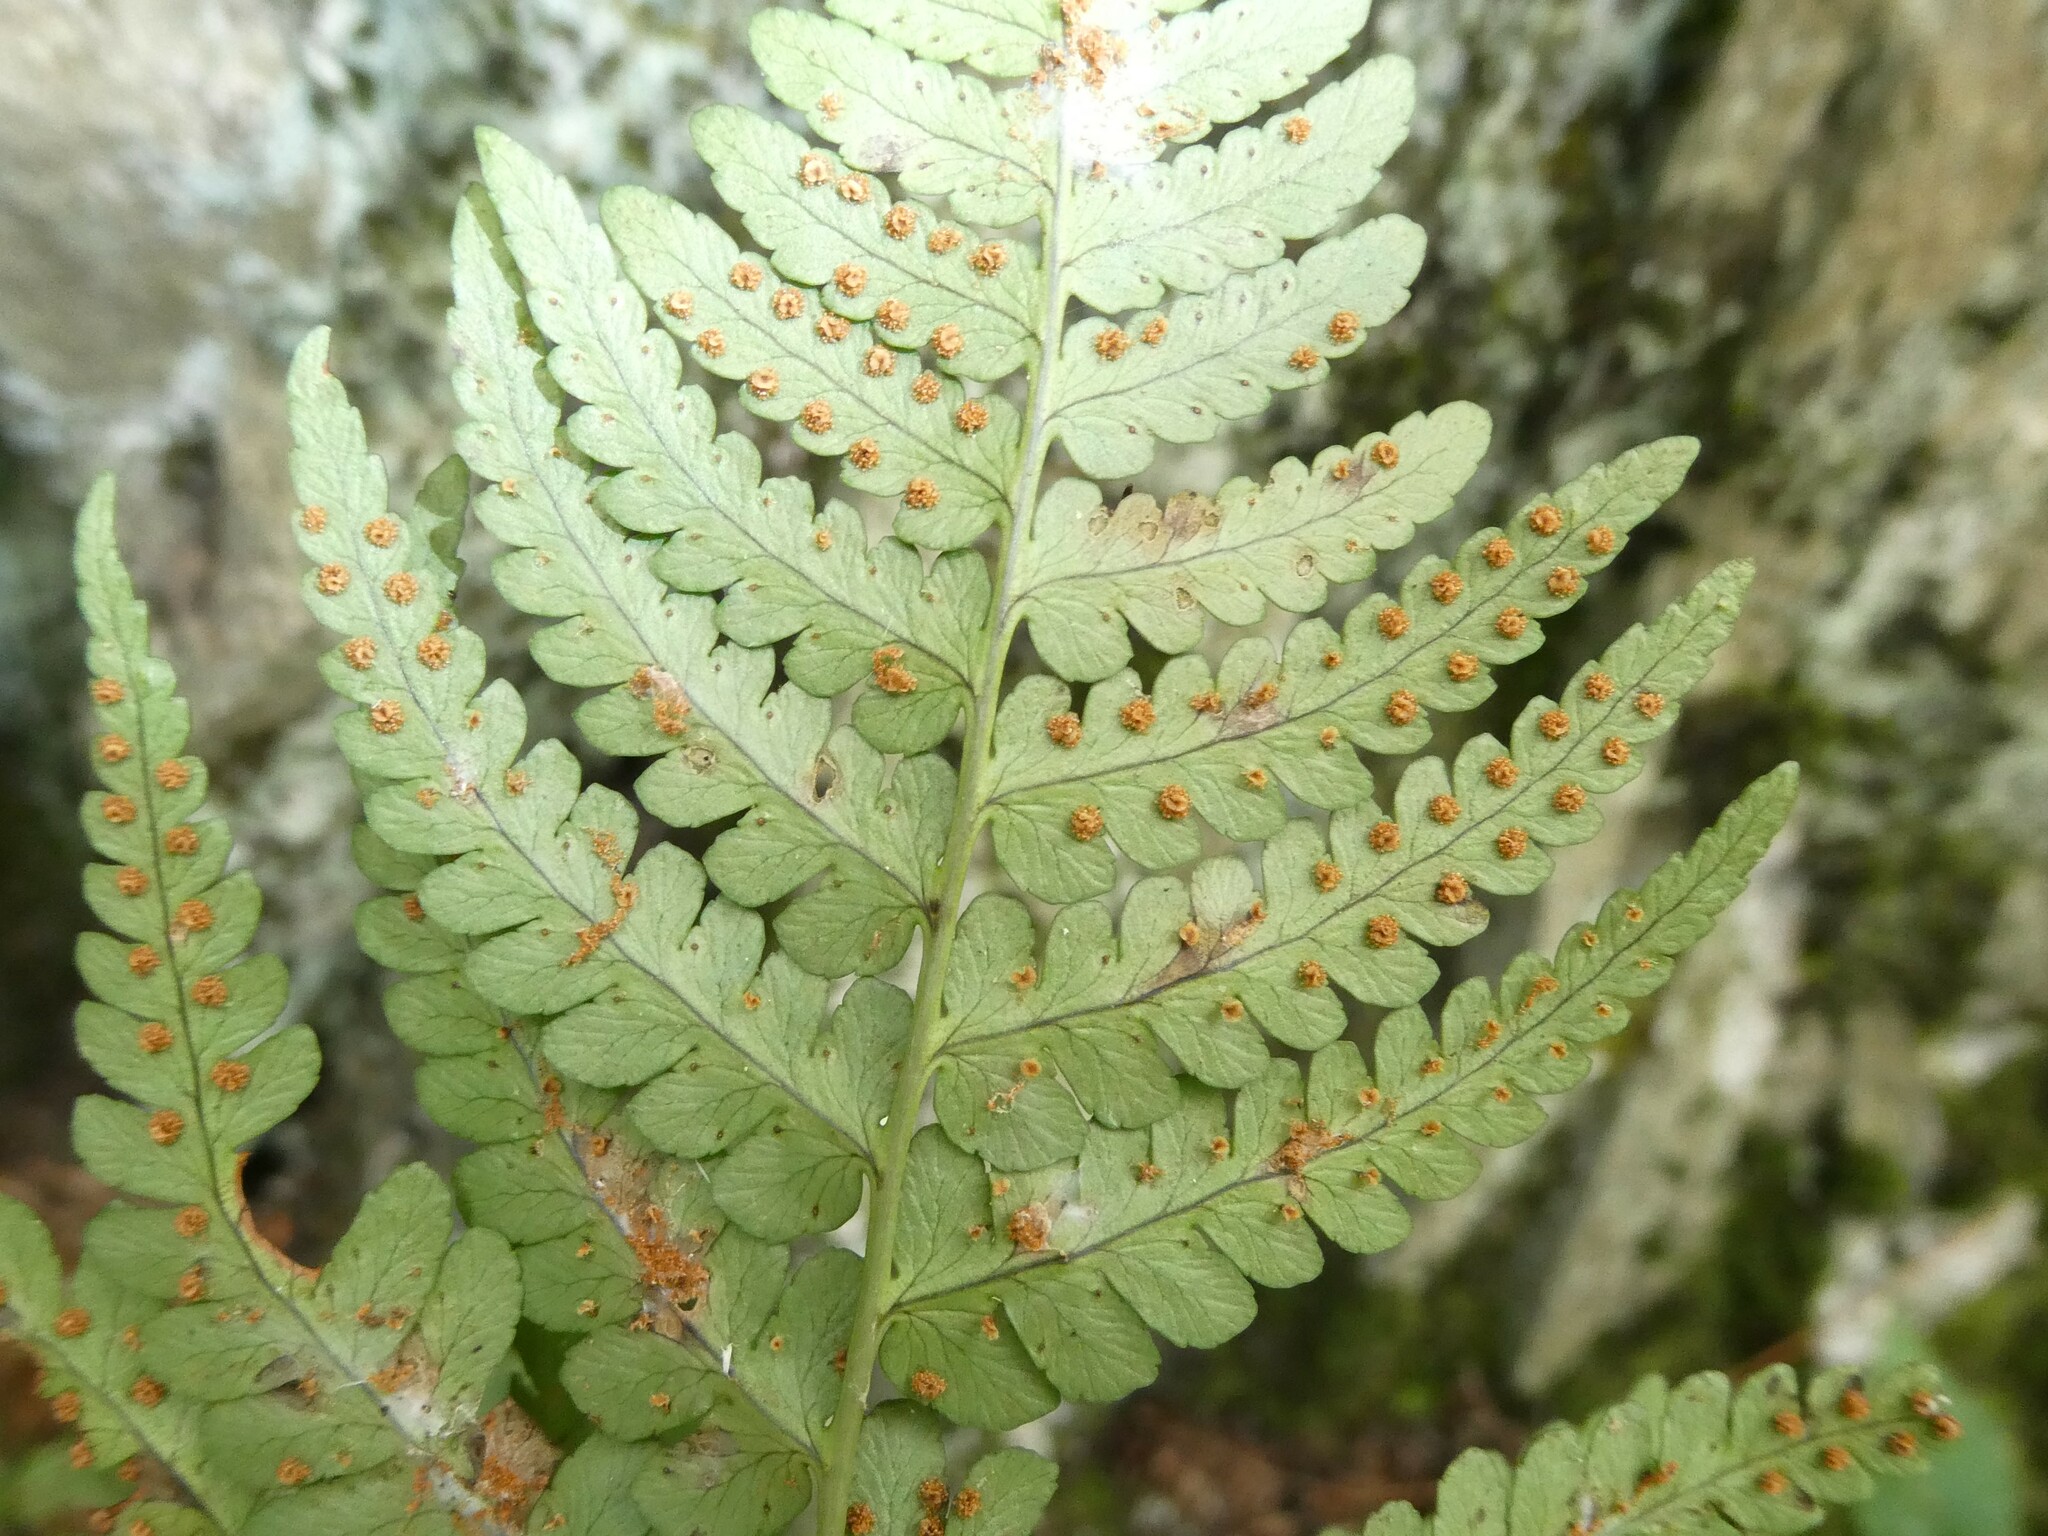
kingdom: Plantae
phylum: Tracheophyta
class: Polypodiopsida
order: Polypodiales
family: Dryopteridaceae
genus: Dryopteris
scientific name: Dryopteris marginalis
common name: Marginal wood fern
